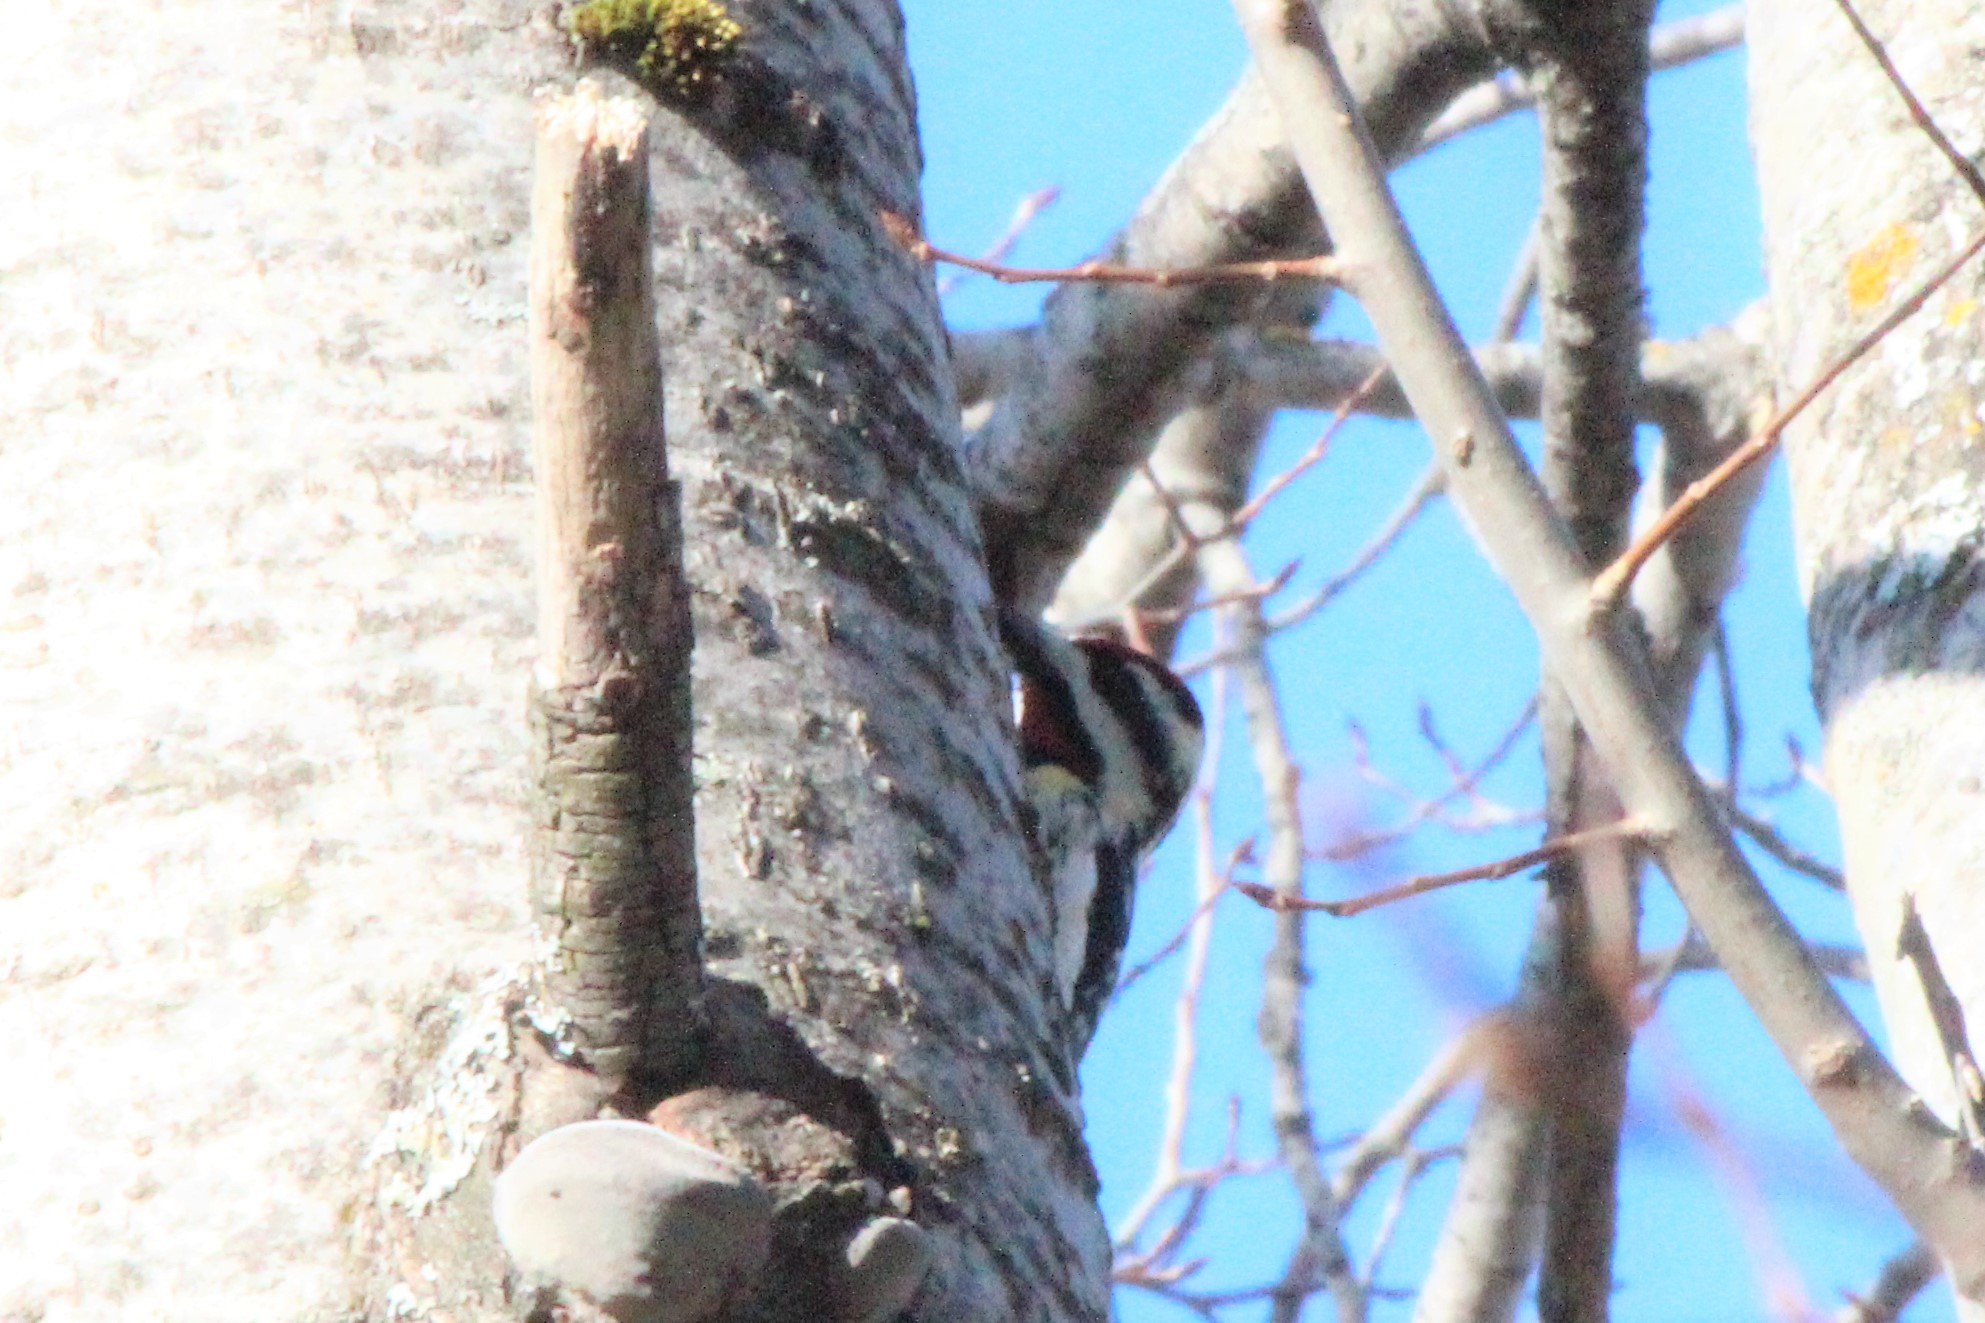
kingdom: Animalia
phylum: Chordata
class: Aves
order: Piciformes
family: Picidae
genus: Sphyrapicus
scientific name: Sphyrapicus varius
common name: Yellow-bellied sapsucker
